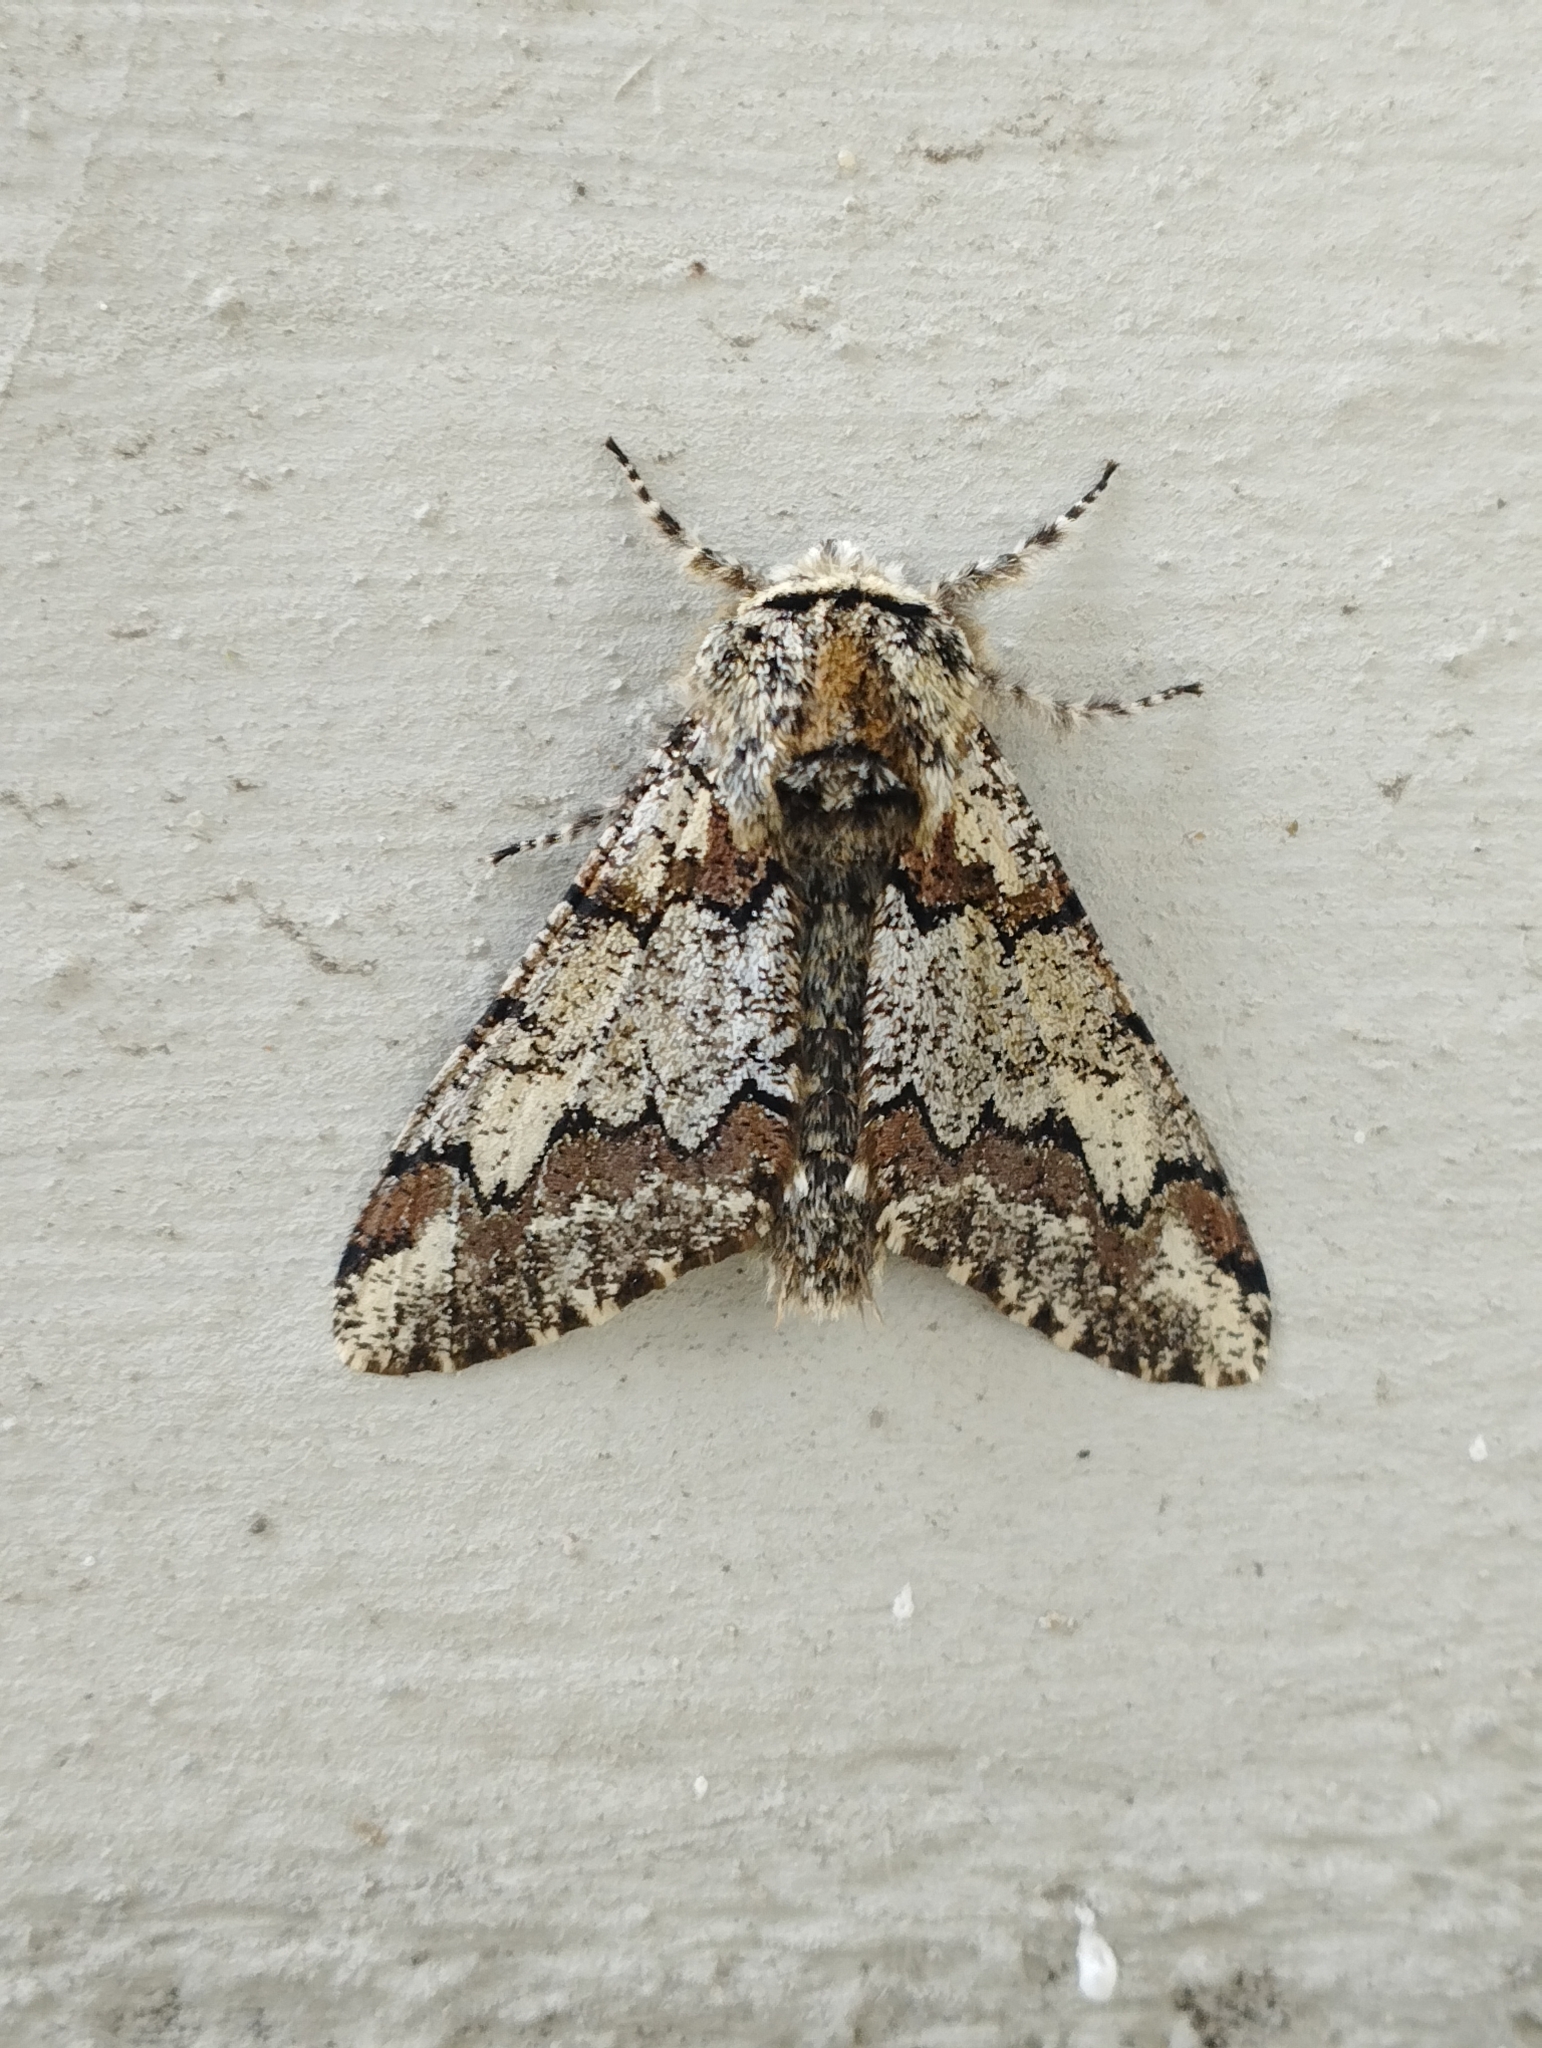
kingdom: Animalia
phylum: Arthropoda
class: Insecta
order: Lepidoptera
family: Geometridae
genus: Biston
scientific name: Biston strataria
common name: Oak beauty
